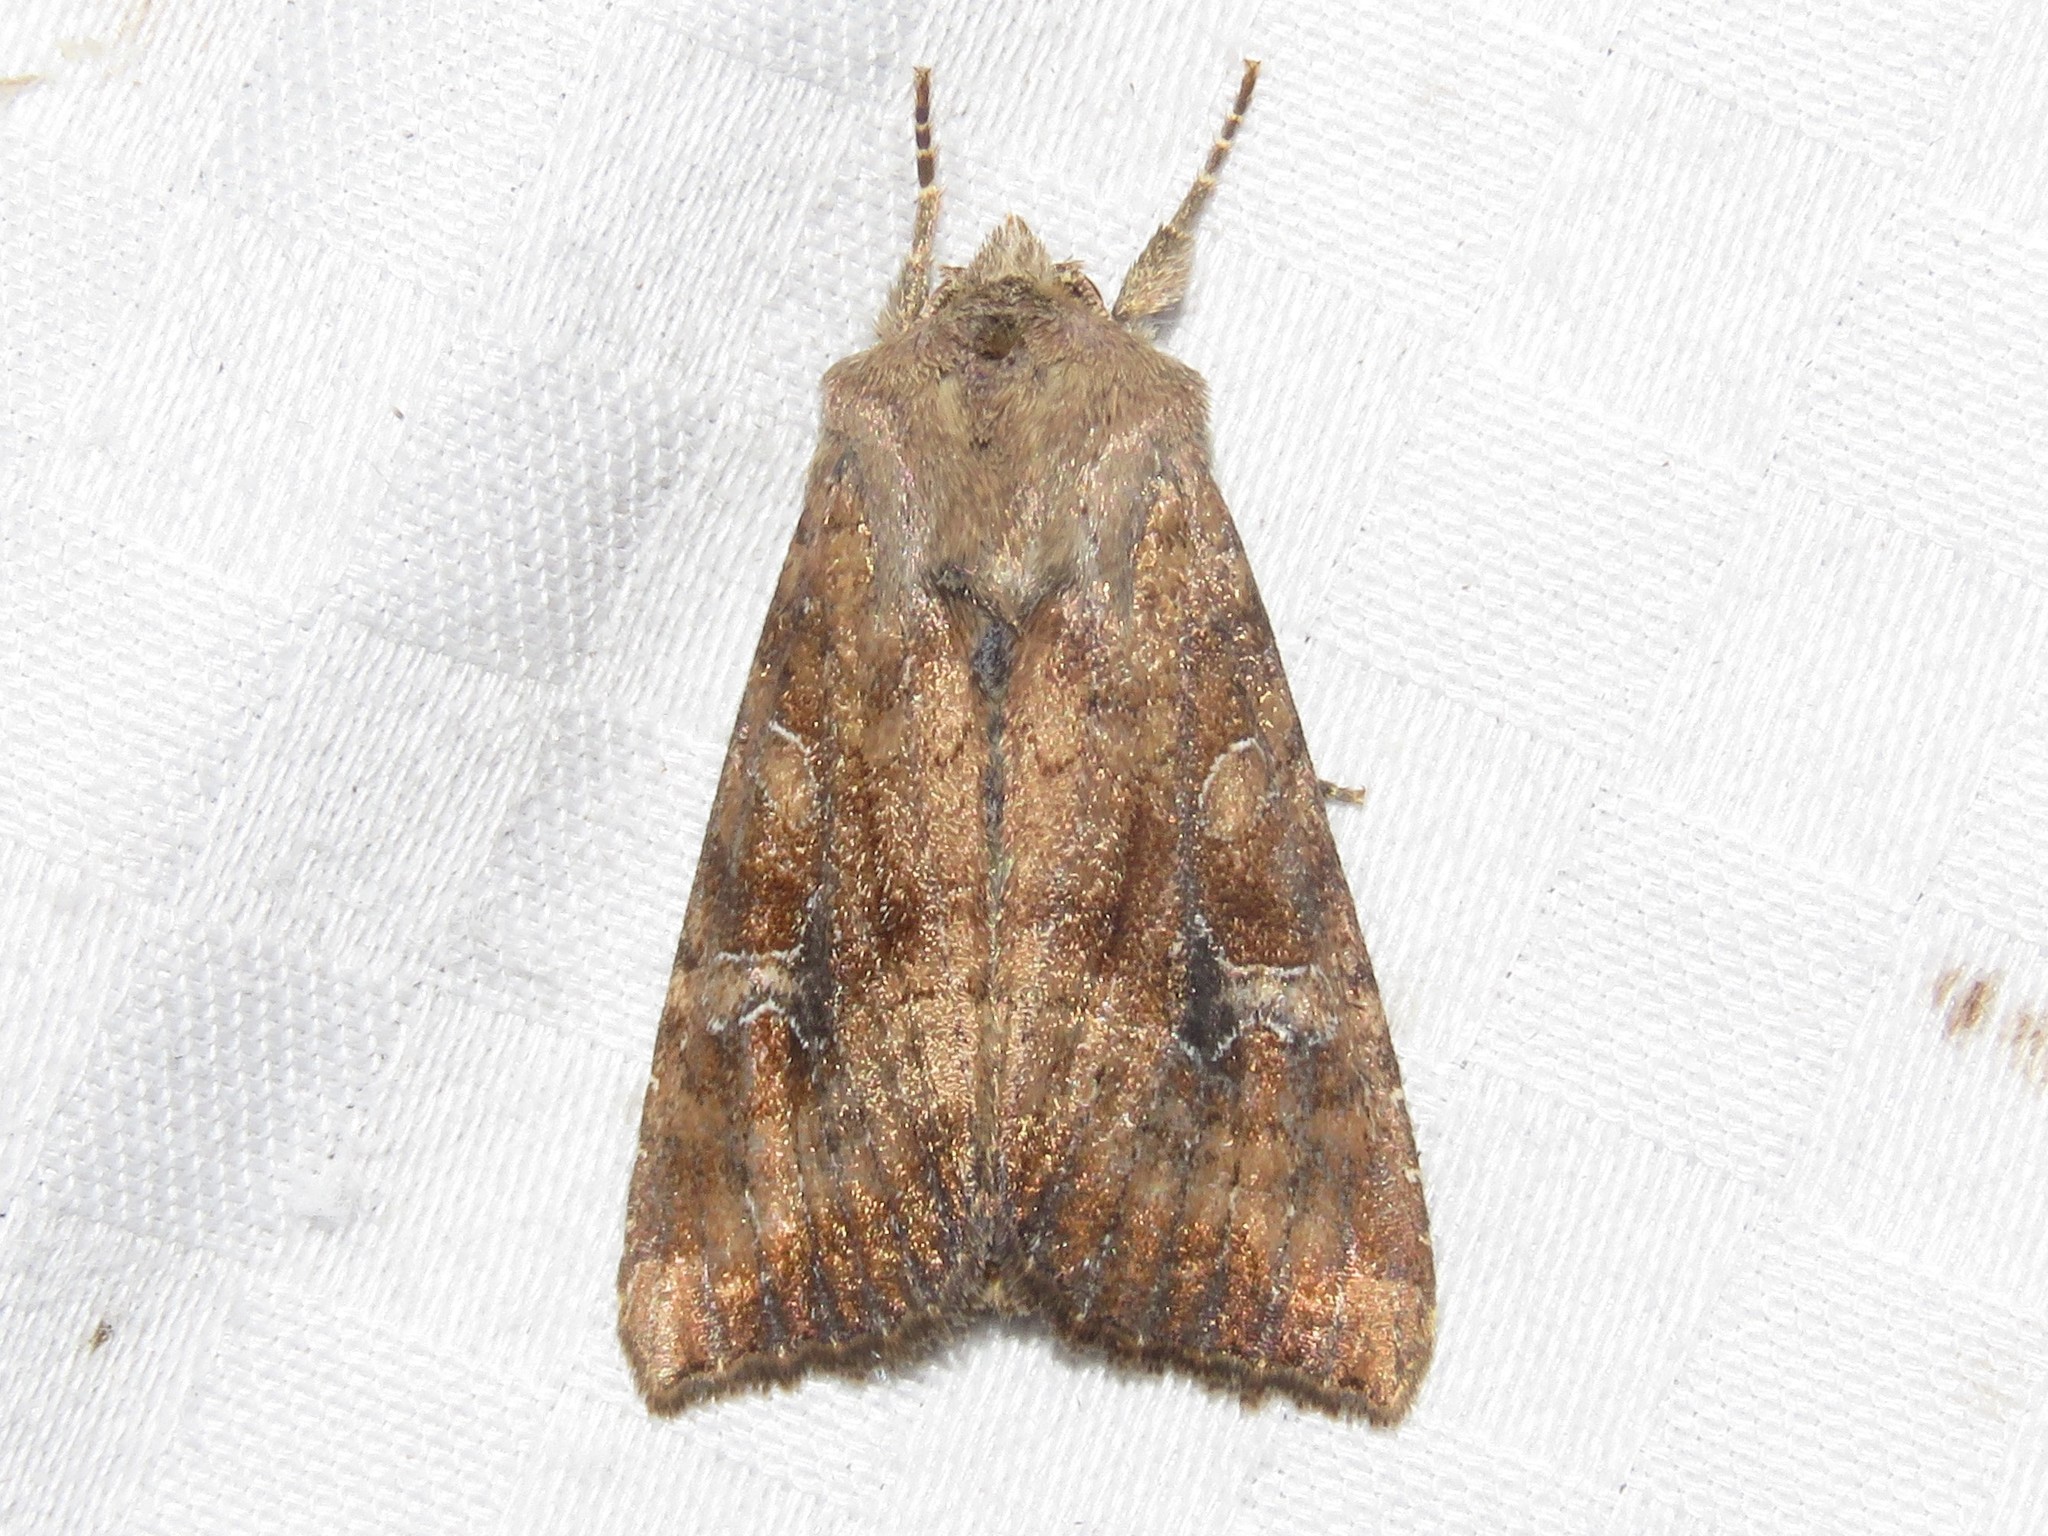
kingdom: Animalia
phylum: Arthropoda
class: Insecta
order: Lepidoptera
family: Noctuidae
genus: Loscopia
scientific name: Loscopia velata
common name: Veiled ear moth
